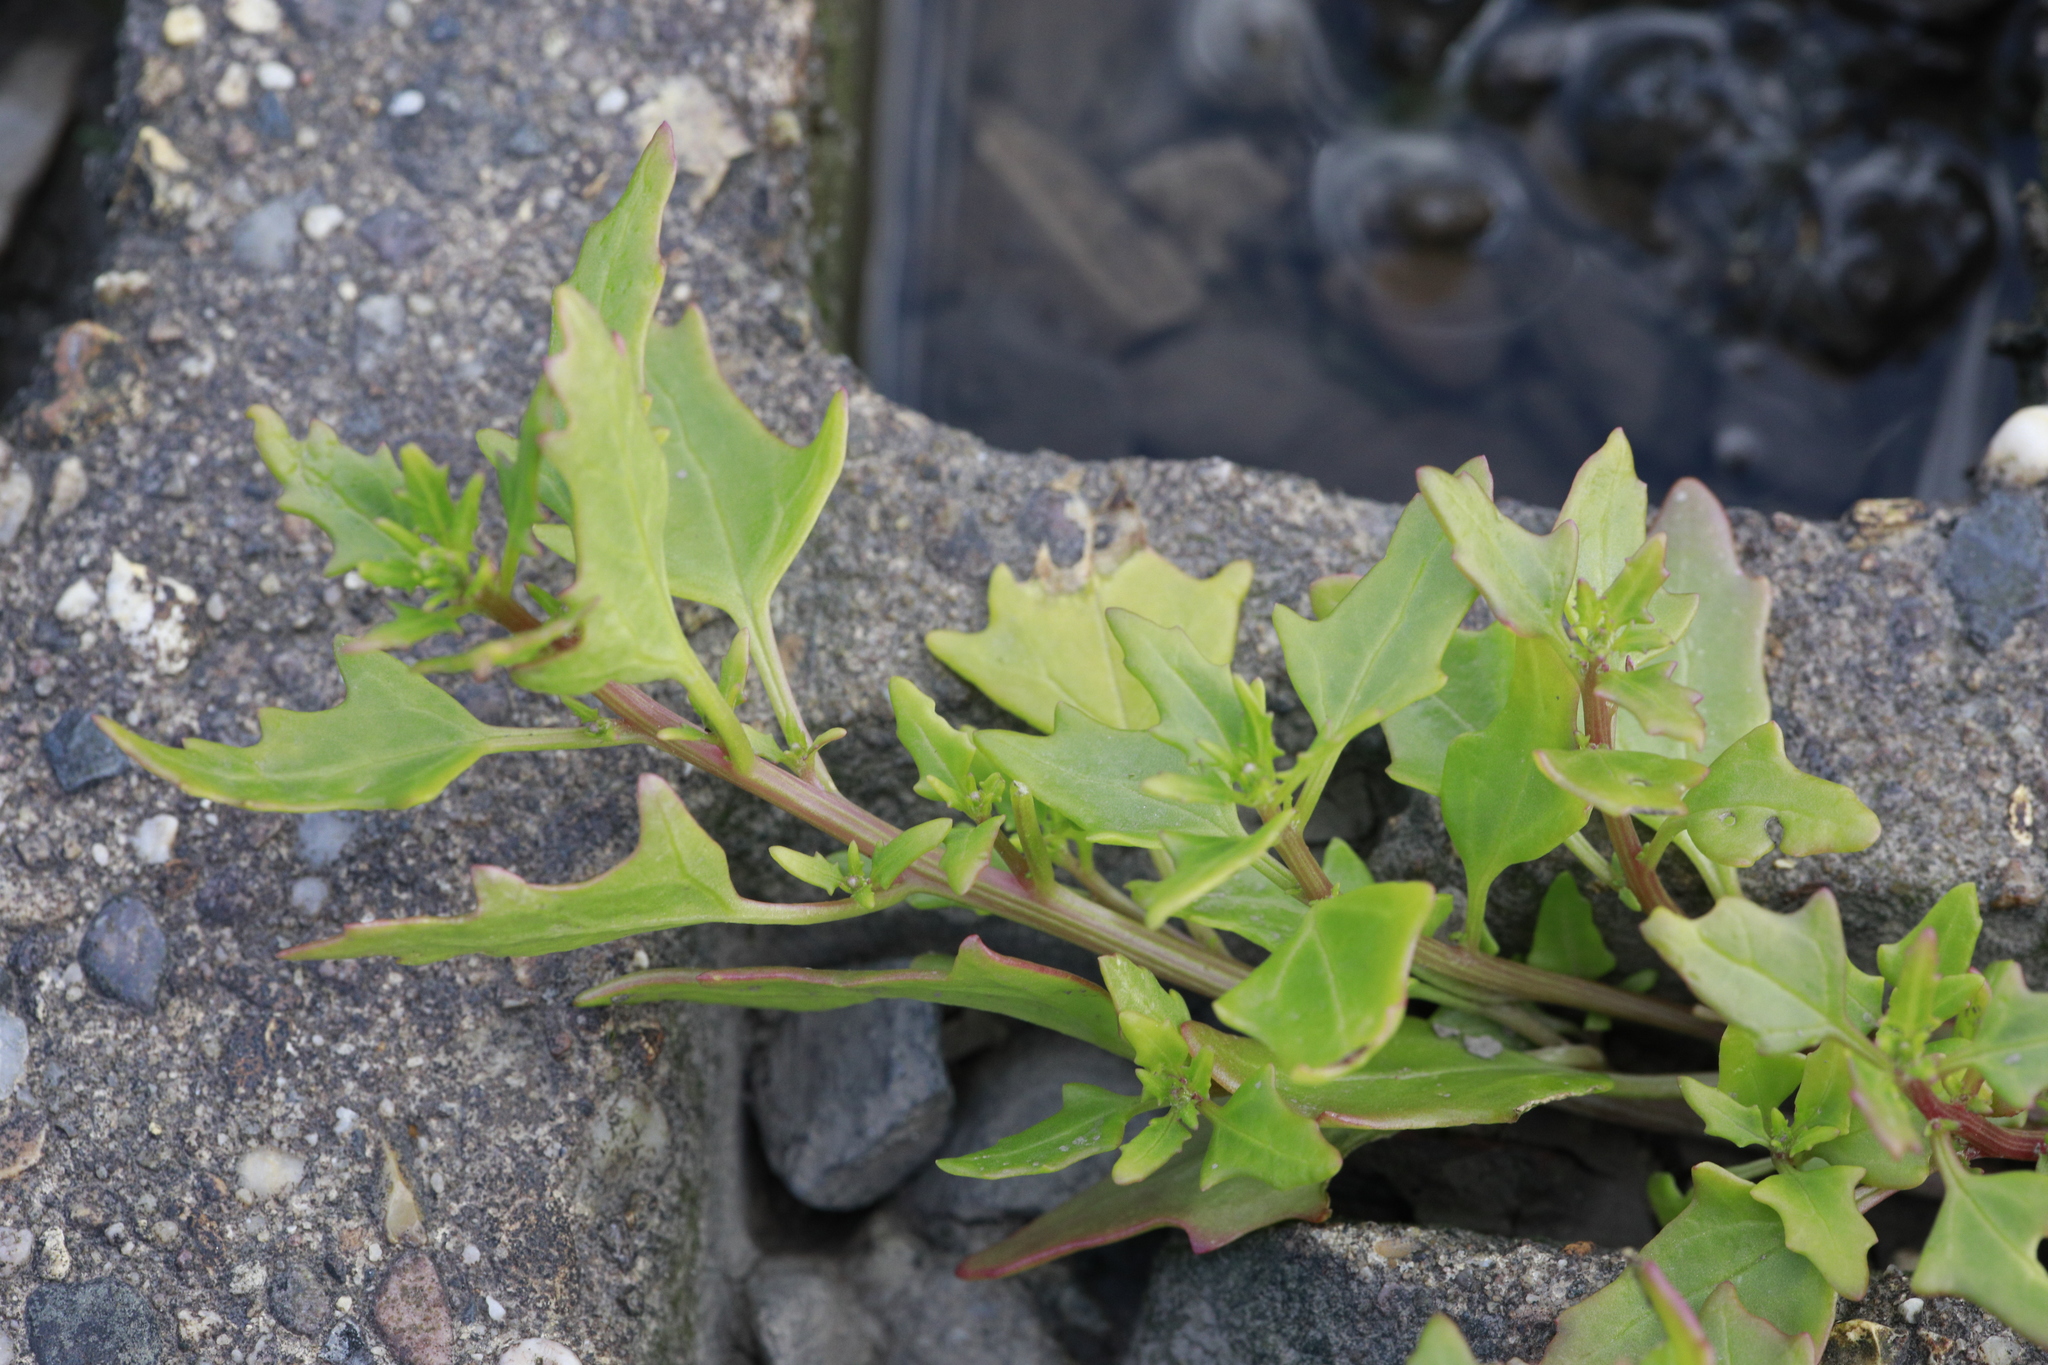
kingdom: Plantae
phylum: Tracheophyta
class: Magnoliopsida
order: Caryophyllales
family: Amaranthaceae
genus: Atriplex
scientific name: Atriplex prostrata
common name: Spear-leaved orache
